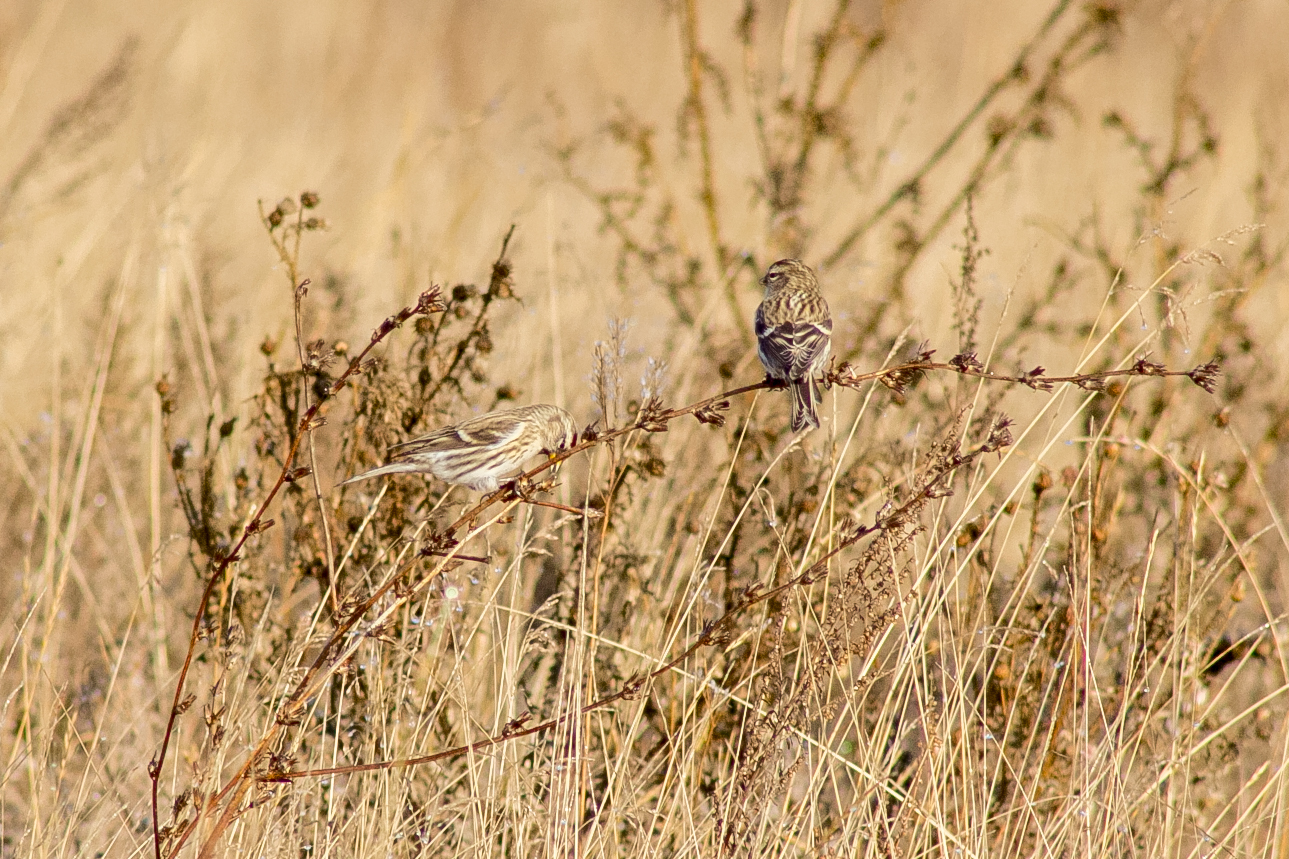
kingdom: Animalia
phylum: Chordata
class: Aves
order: Passeriformes
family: Fringillidae
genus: Acanthis
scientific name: Acanthis flammea
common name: Common redpoll
